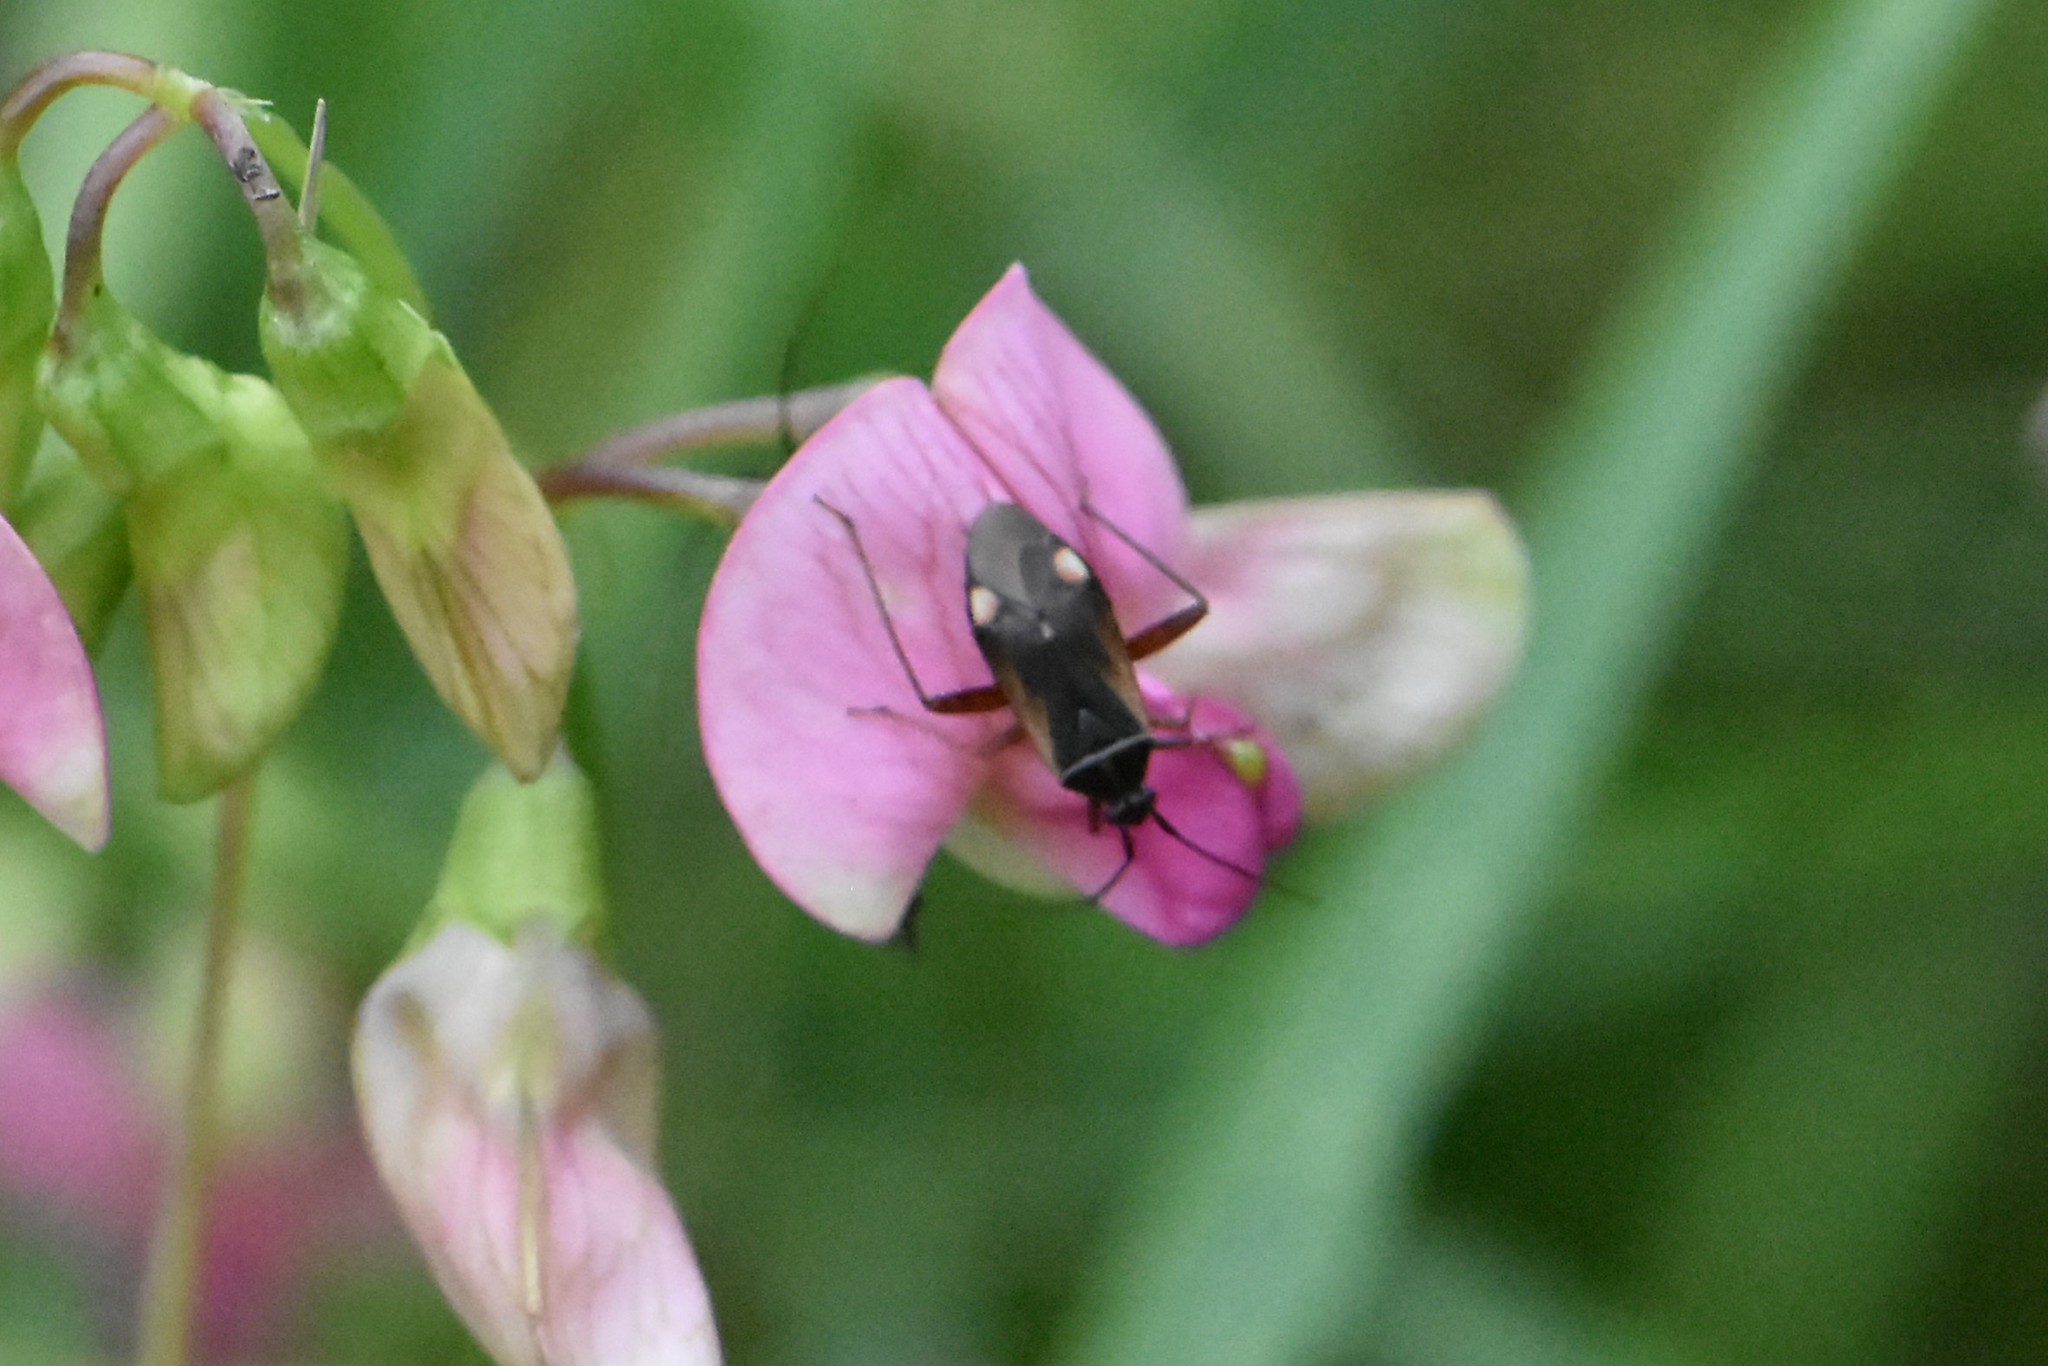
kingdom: Animalia
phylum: Arthropoda
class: Insecta
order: Hemiptera
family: Miridae
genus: Adelphocoris
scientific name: Adelphocoris seticornis
